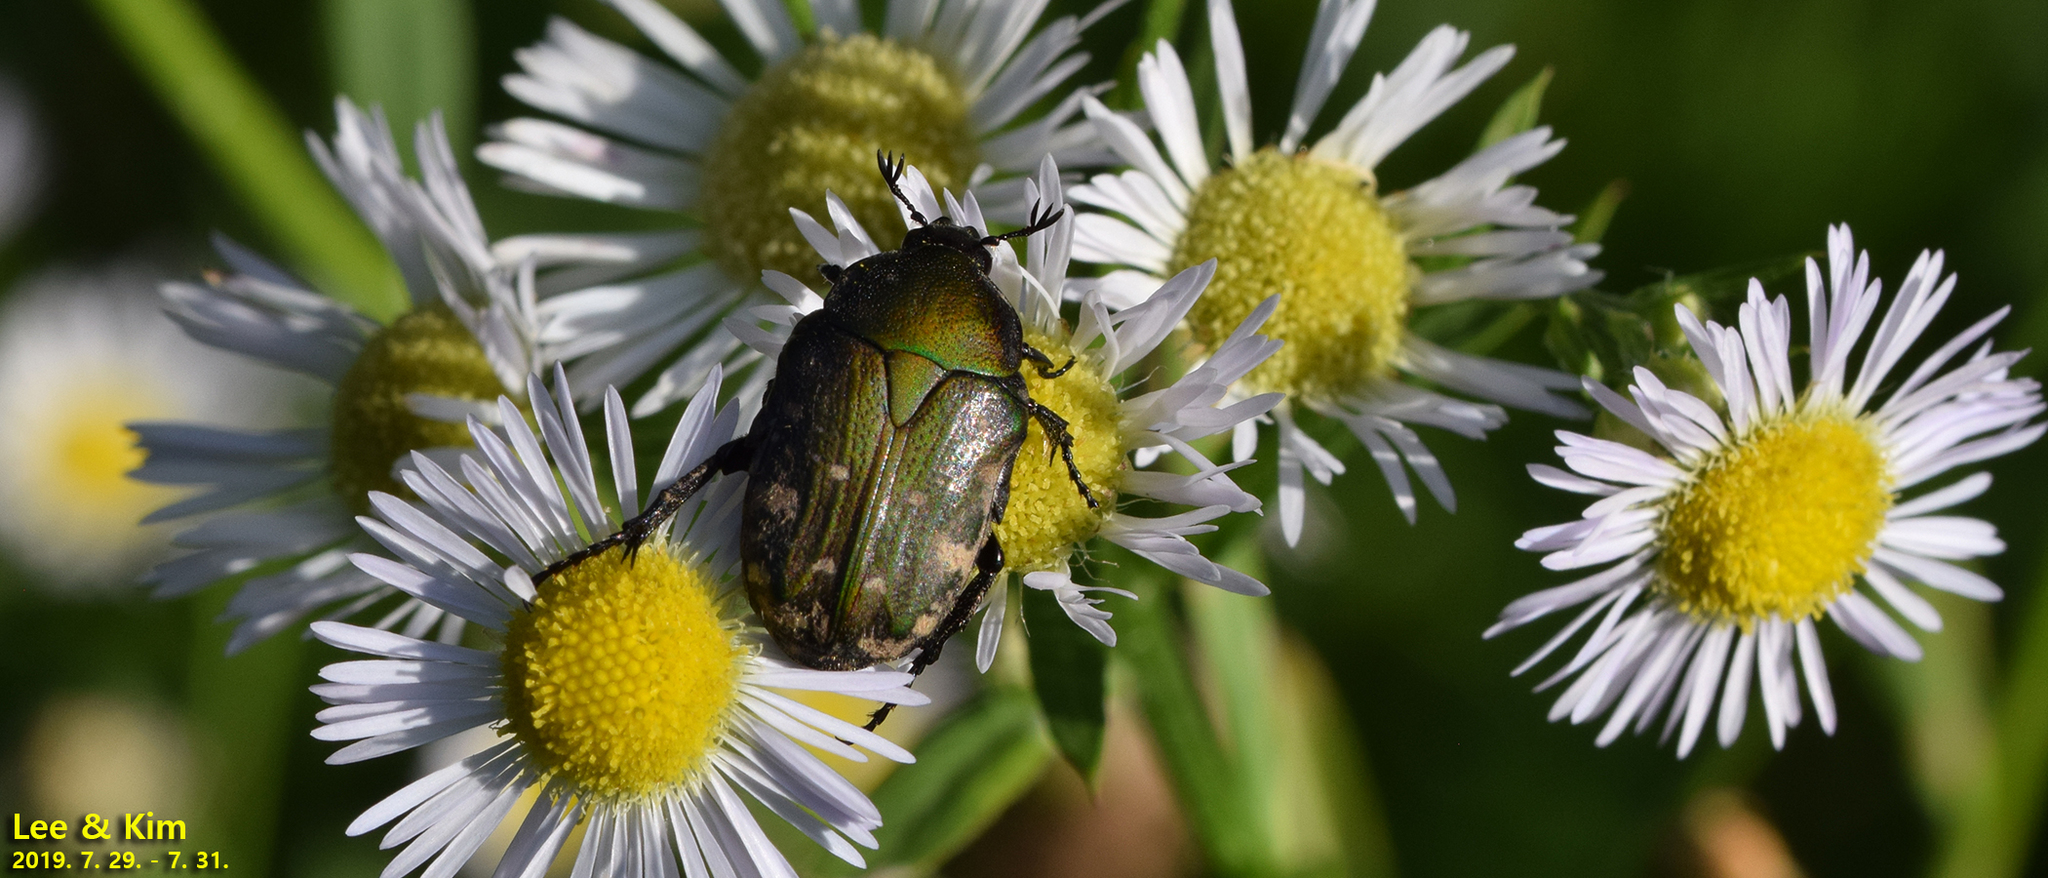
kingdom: Animalia
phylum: Arthropoda
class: Insecta
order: Coleoptera
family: Scarabaeidae
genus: Gametis
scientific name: Gametis jucunda
